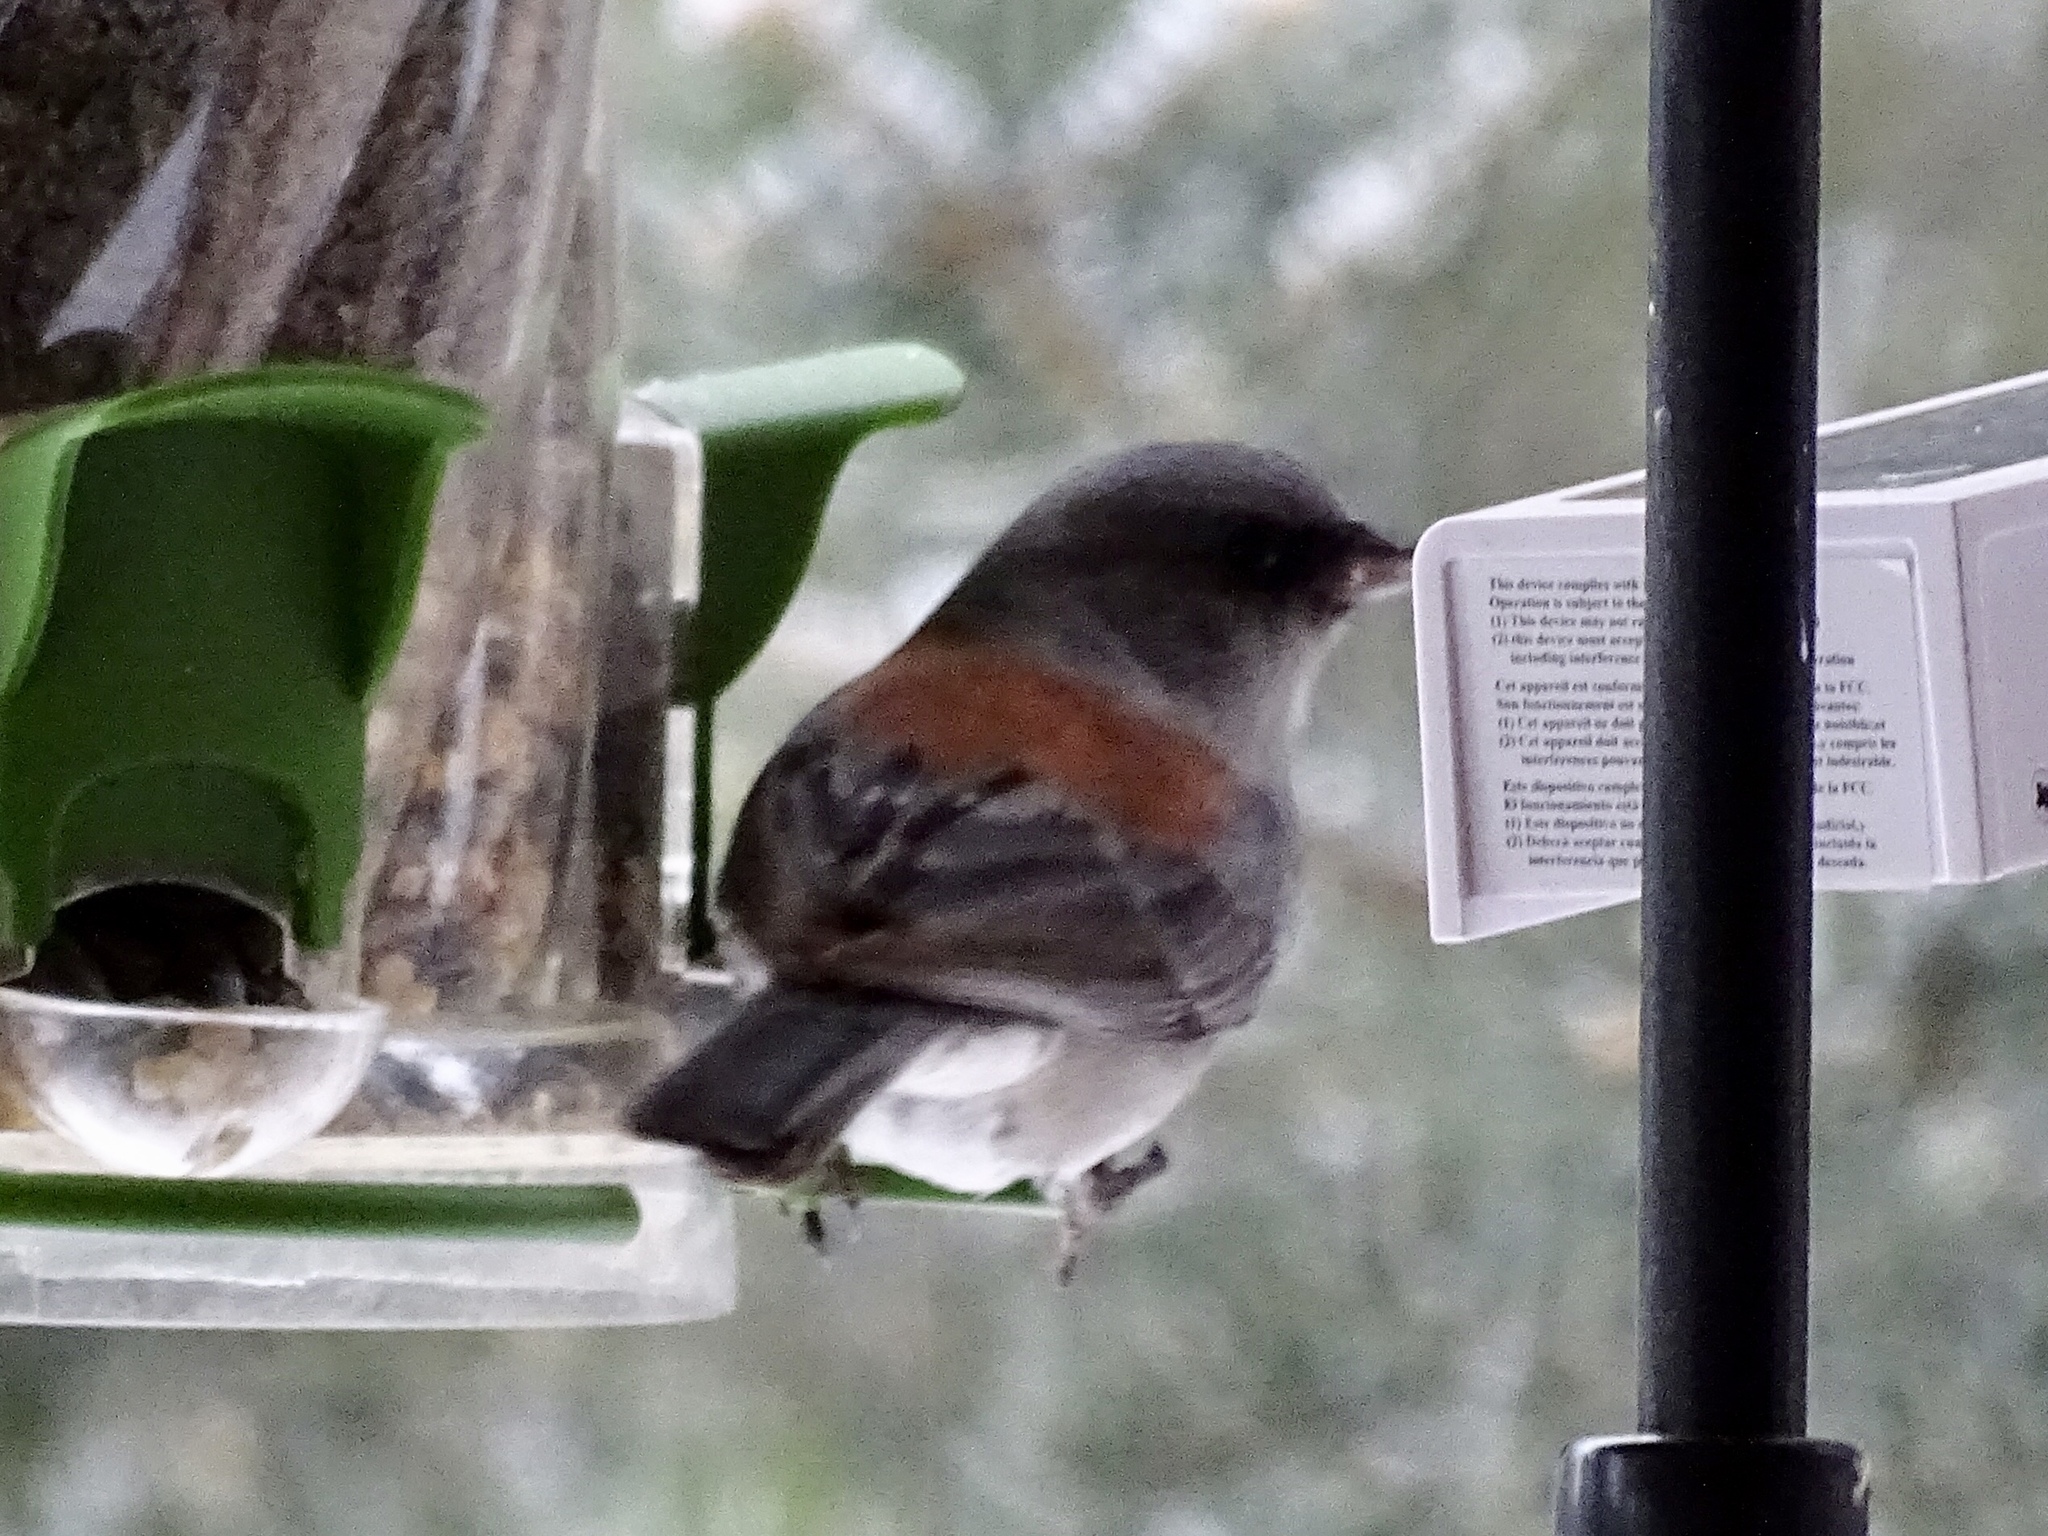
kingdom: Animalia
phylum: Chordata
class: Aves
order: Passeriformes
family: Passerellidae
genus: Junco
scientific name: Junco hyemalis
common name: Dark-eyed junco
